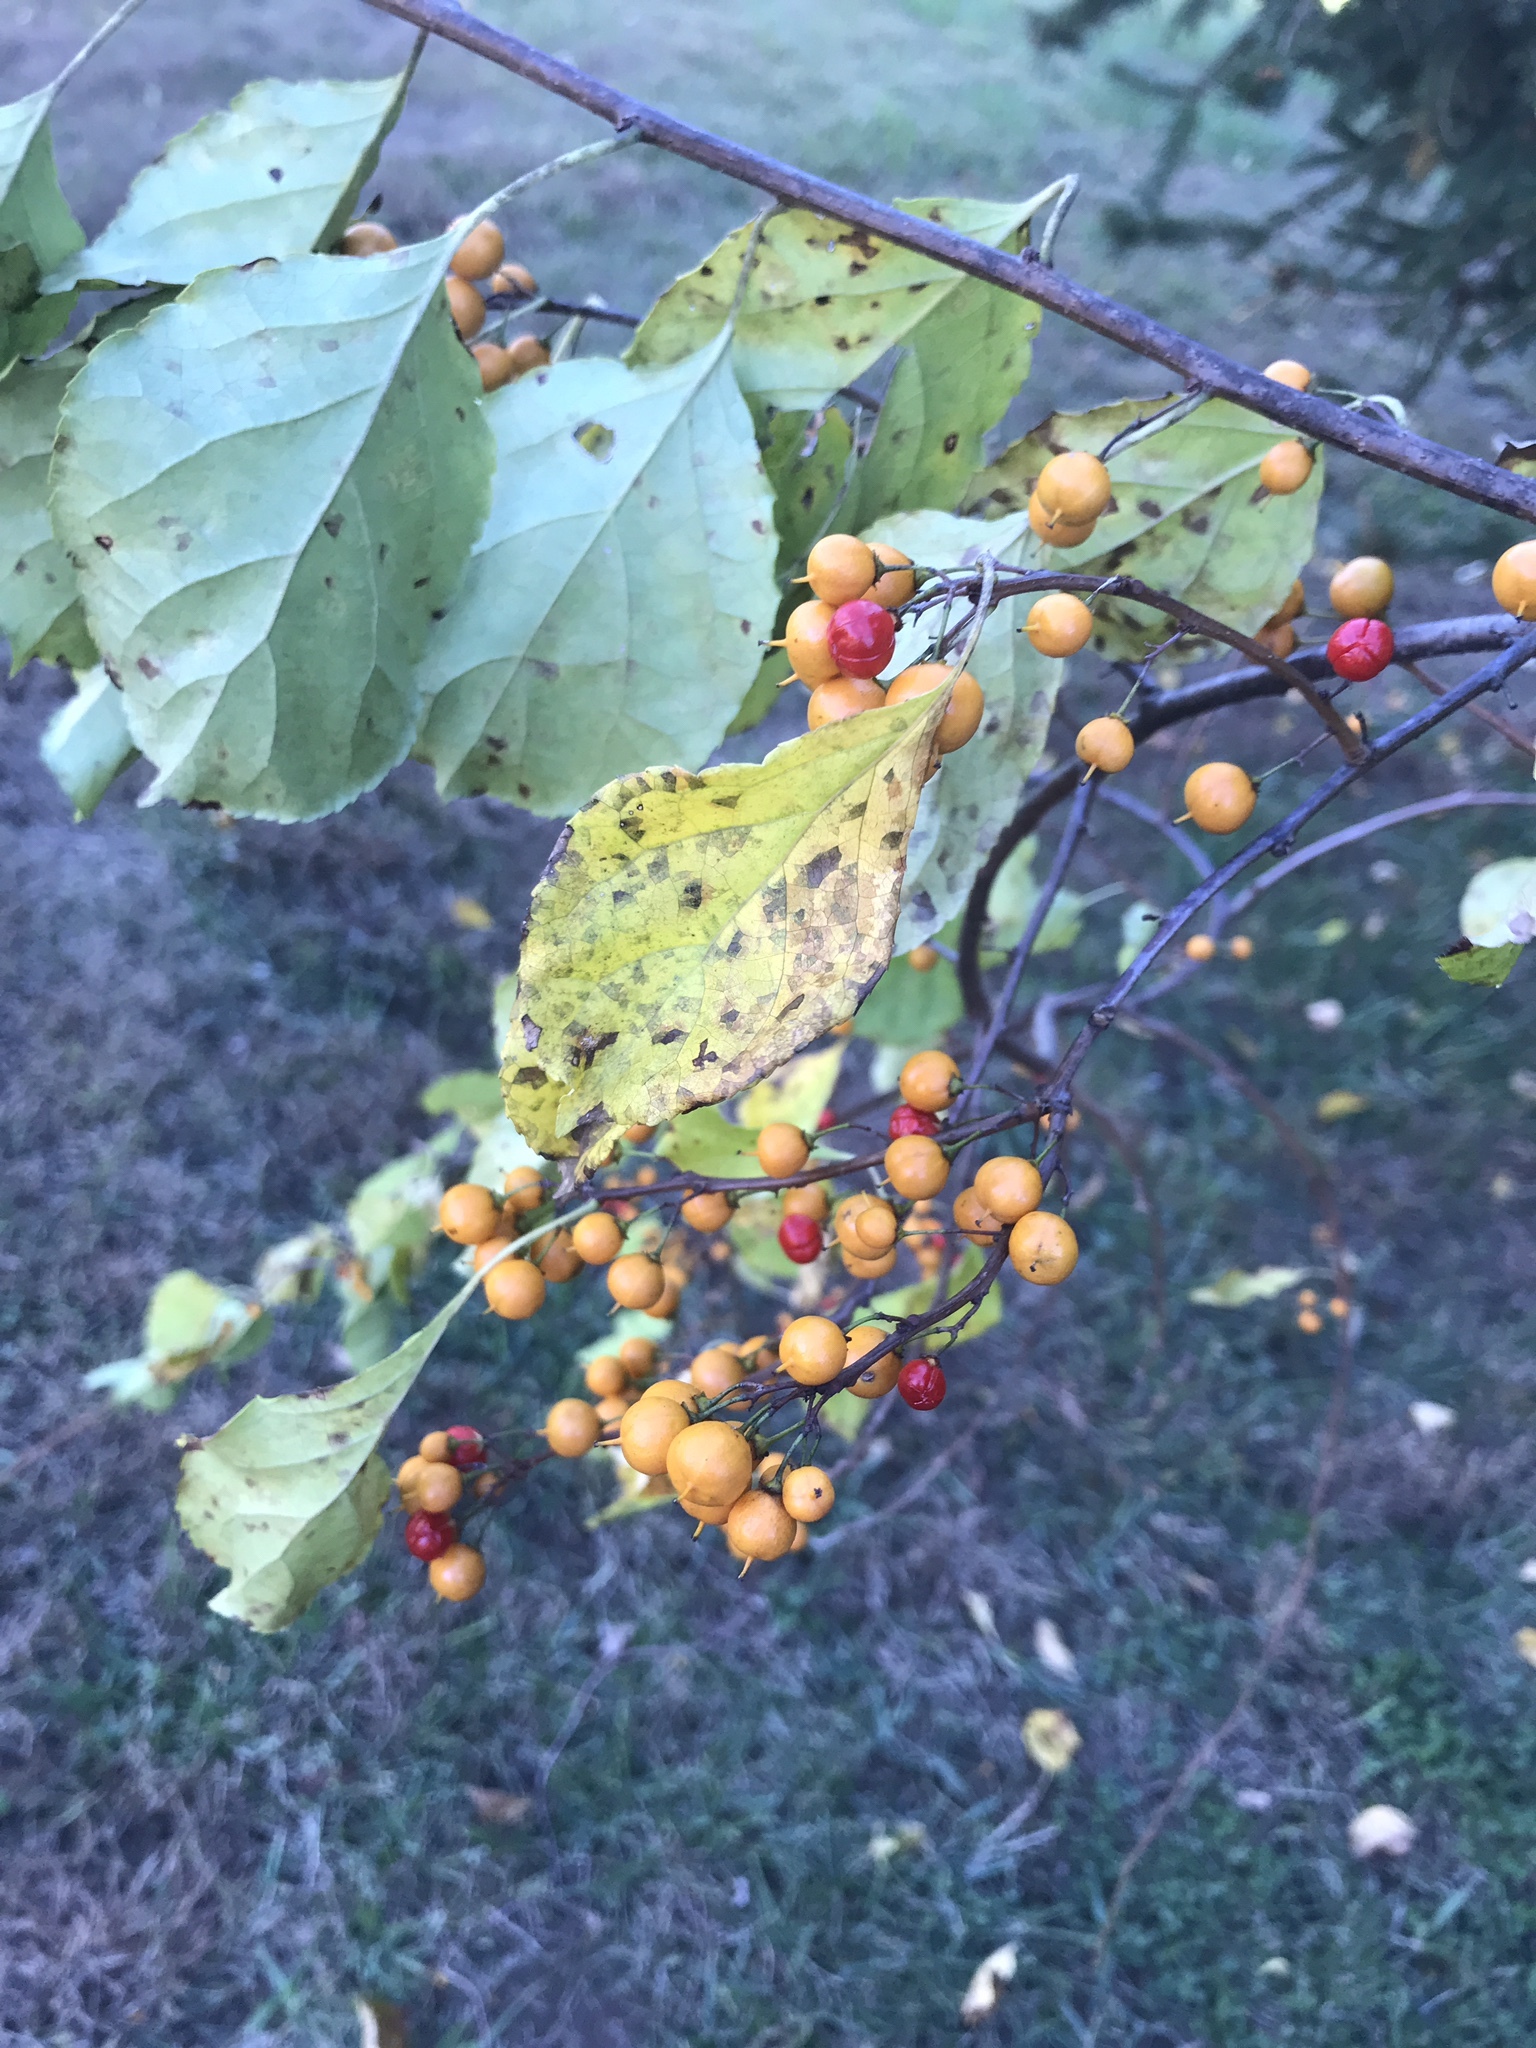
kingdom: Plantae
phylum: Tracheophyta
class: Magnoliopsida
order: Celastrales
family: Celastraceae
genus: Celastrus
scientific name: Celastrus orbiculatus
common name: Oriental bittersweet
